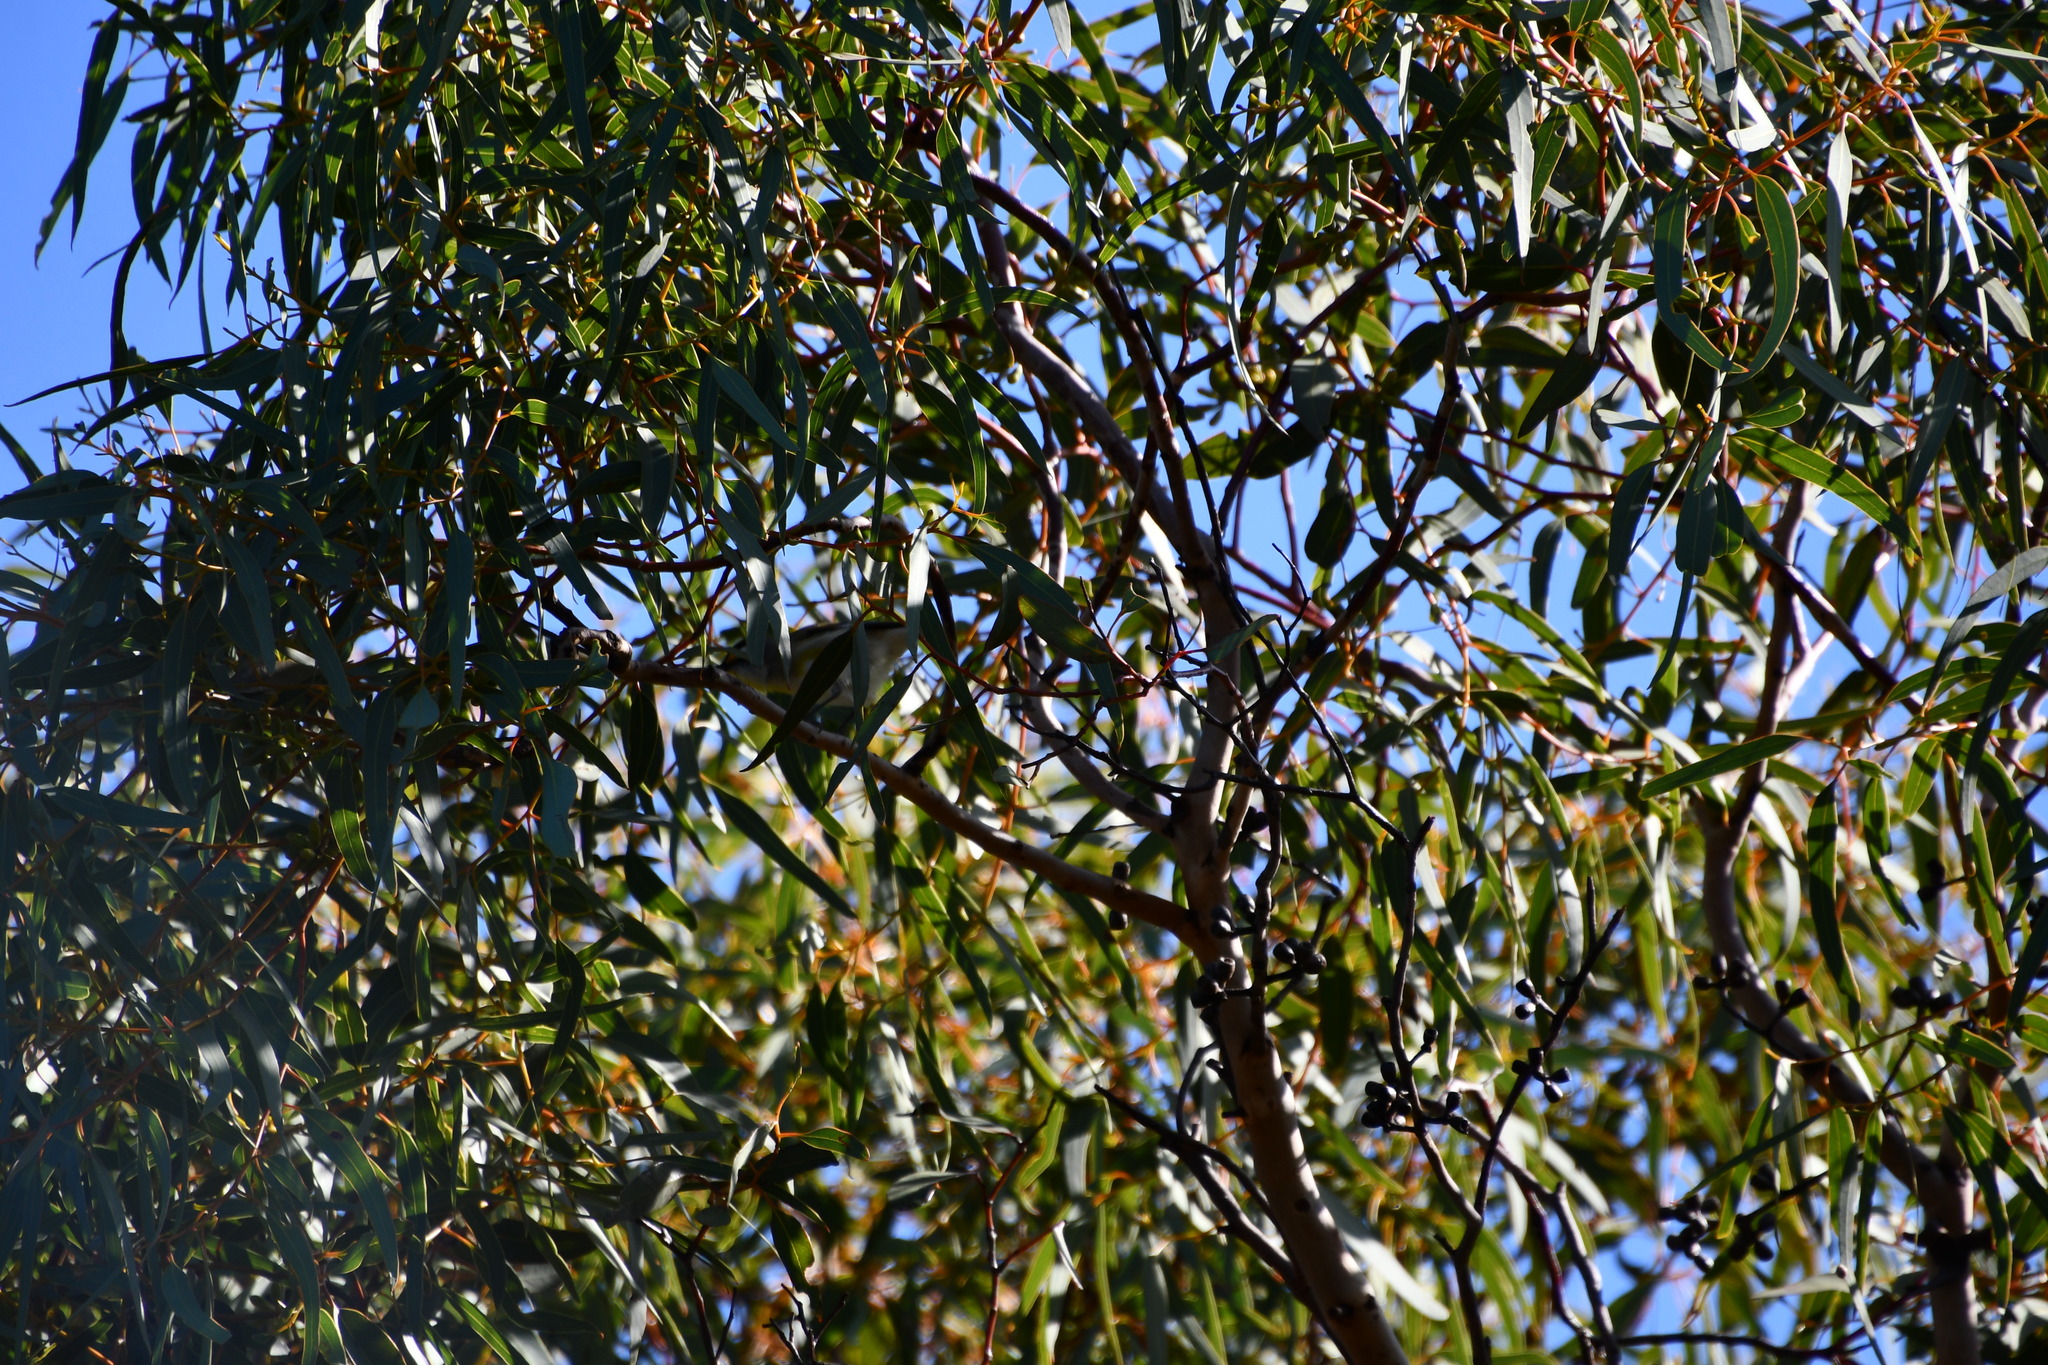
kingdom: Animalia
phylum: Chordata
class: Aves
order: Passeriformes
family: Pardalotidae
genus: Pardalotus
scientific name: Pardalotus striatus
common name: Striated pardalote
